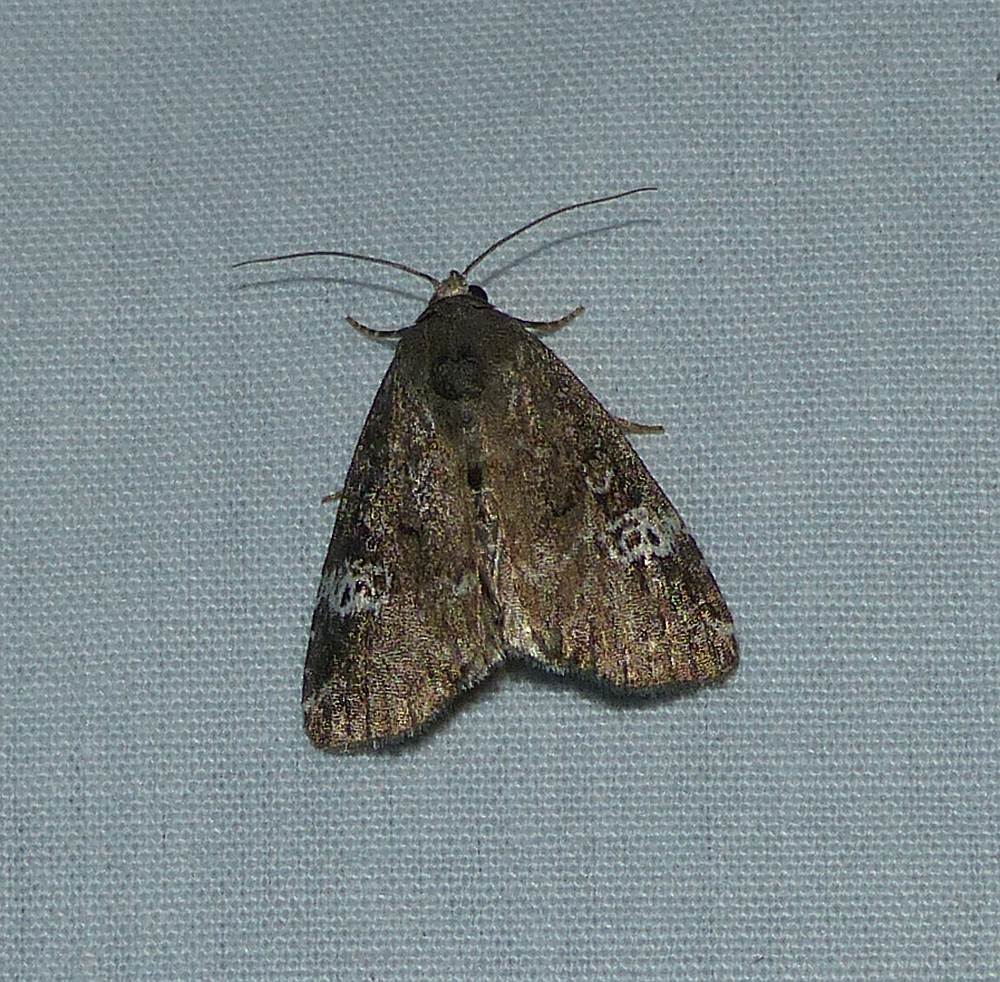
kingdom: Animalia
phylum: Arthropoda
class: Insecta
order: Lepidoptera
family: Noctuidae
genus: Anterastria
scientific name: Anterastria teratophora
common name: Gray marvel moth
